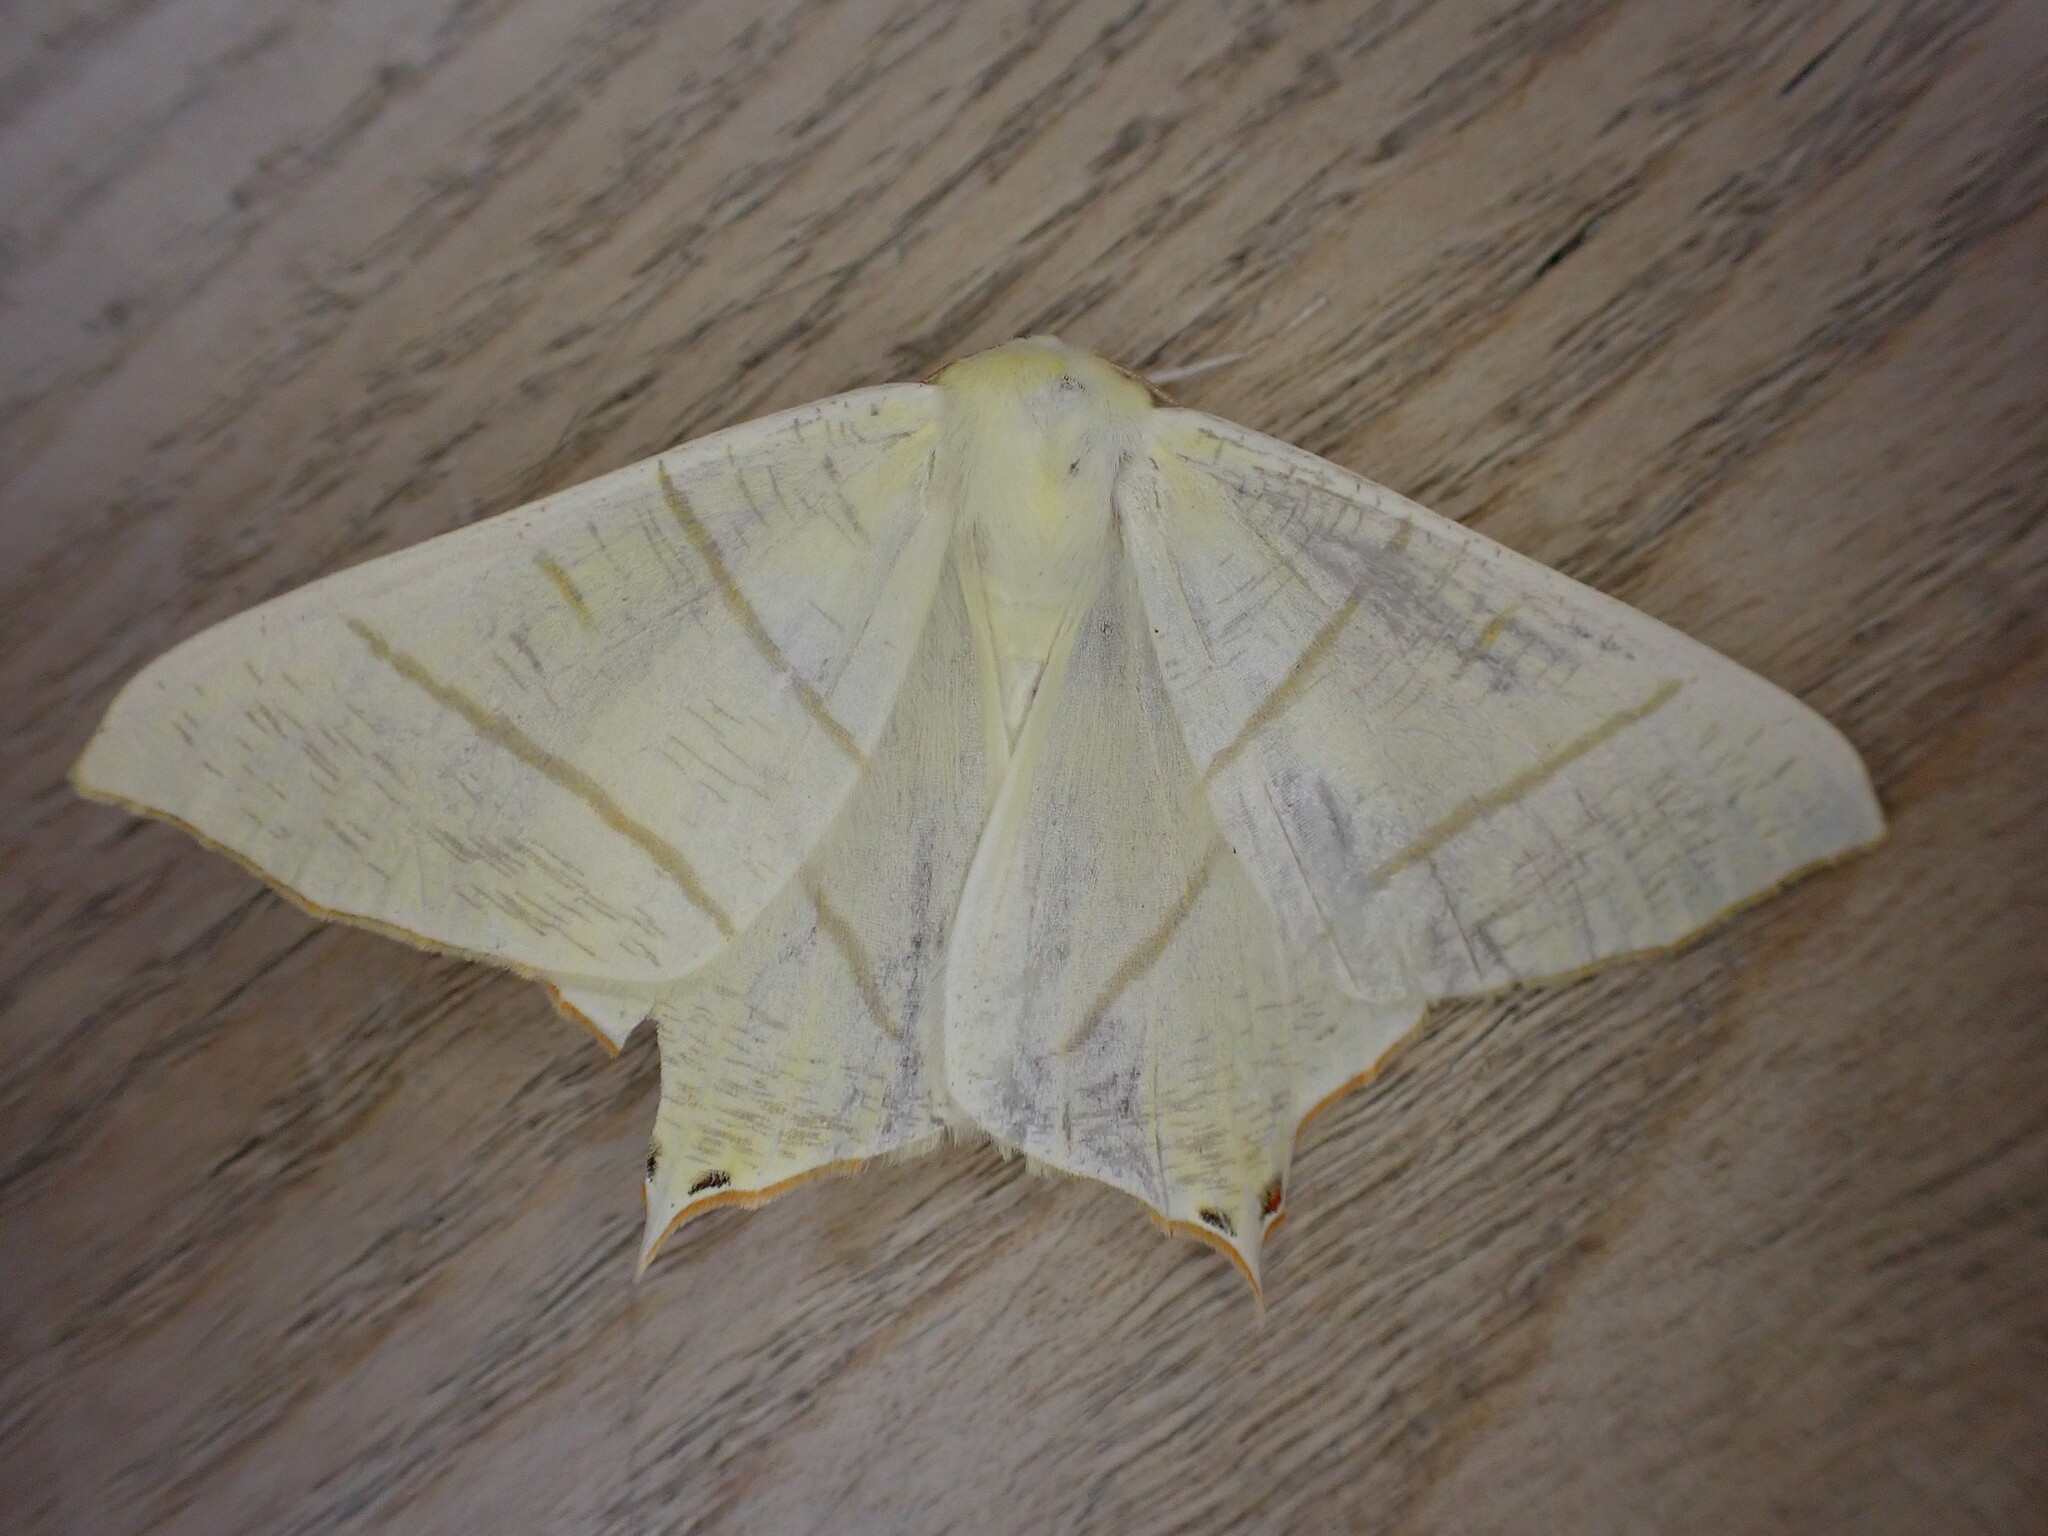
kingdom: Animalia
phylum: Arthropoda
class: Insecta
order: Lepidoptera
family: Geometridae
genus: Ourapteryx
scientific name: Ourapteryx sambucaria
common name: Swallow-tailed moth
